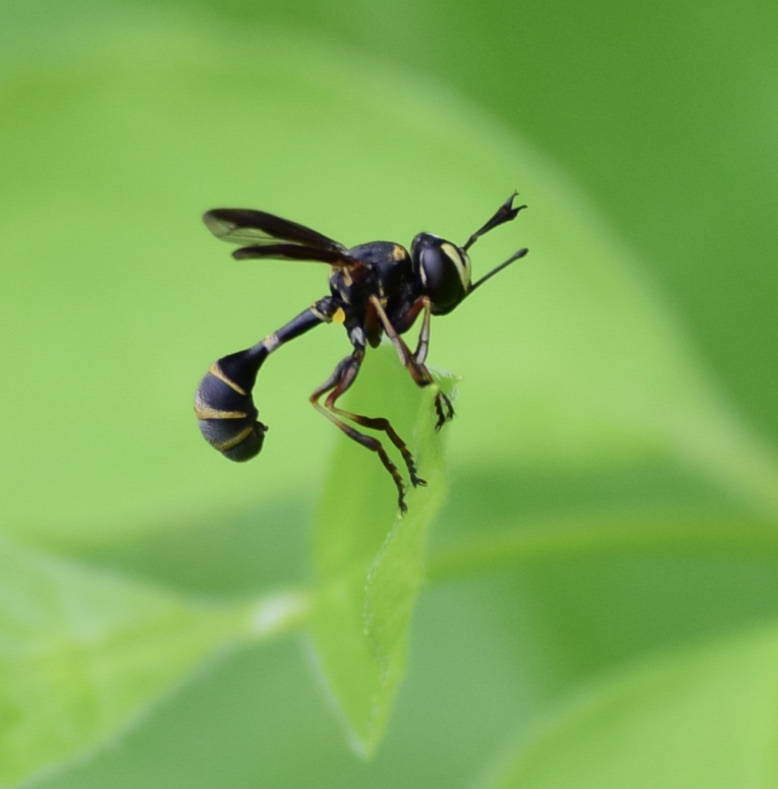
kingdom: Animalia
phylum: Arthropoda
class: Insecta
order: Diptera
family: Conopidae
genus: Physocephala
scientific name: Physocephala marginata
